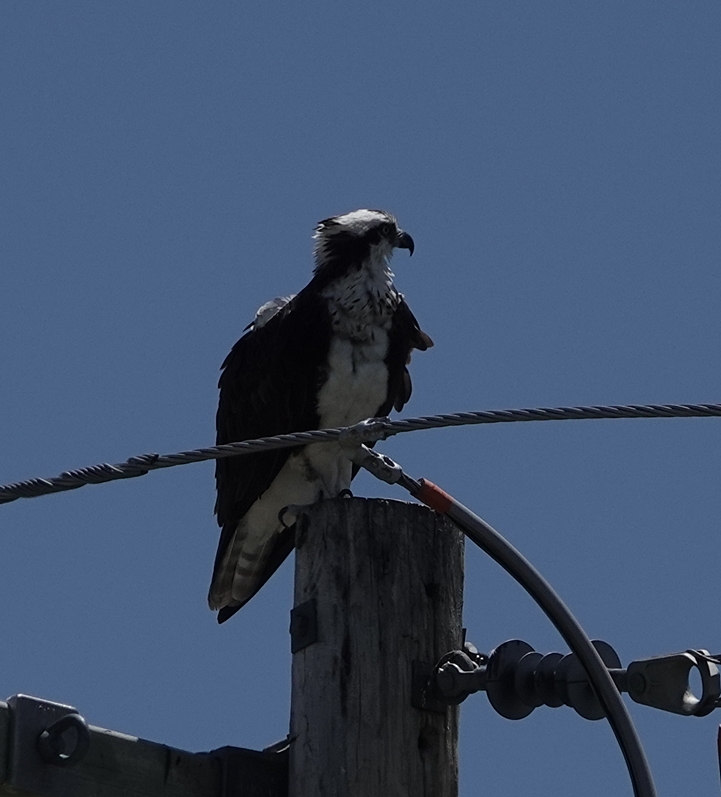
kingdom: Animalia
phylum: Chordata
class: Aves
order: Accipitriformes
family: Pandionidae
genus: Pandion
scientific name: Pandion haliaetus
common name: Osprey
